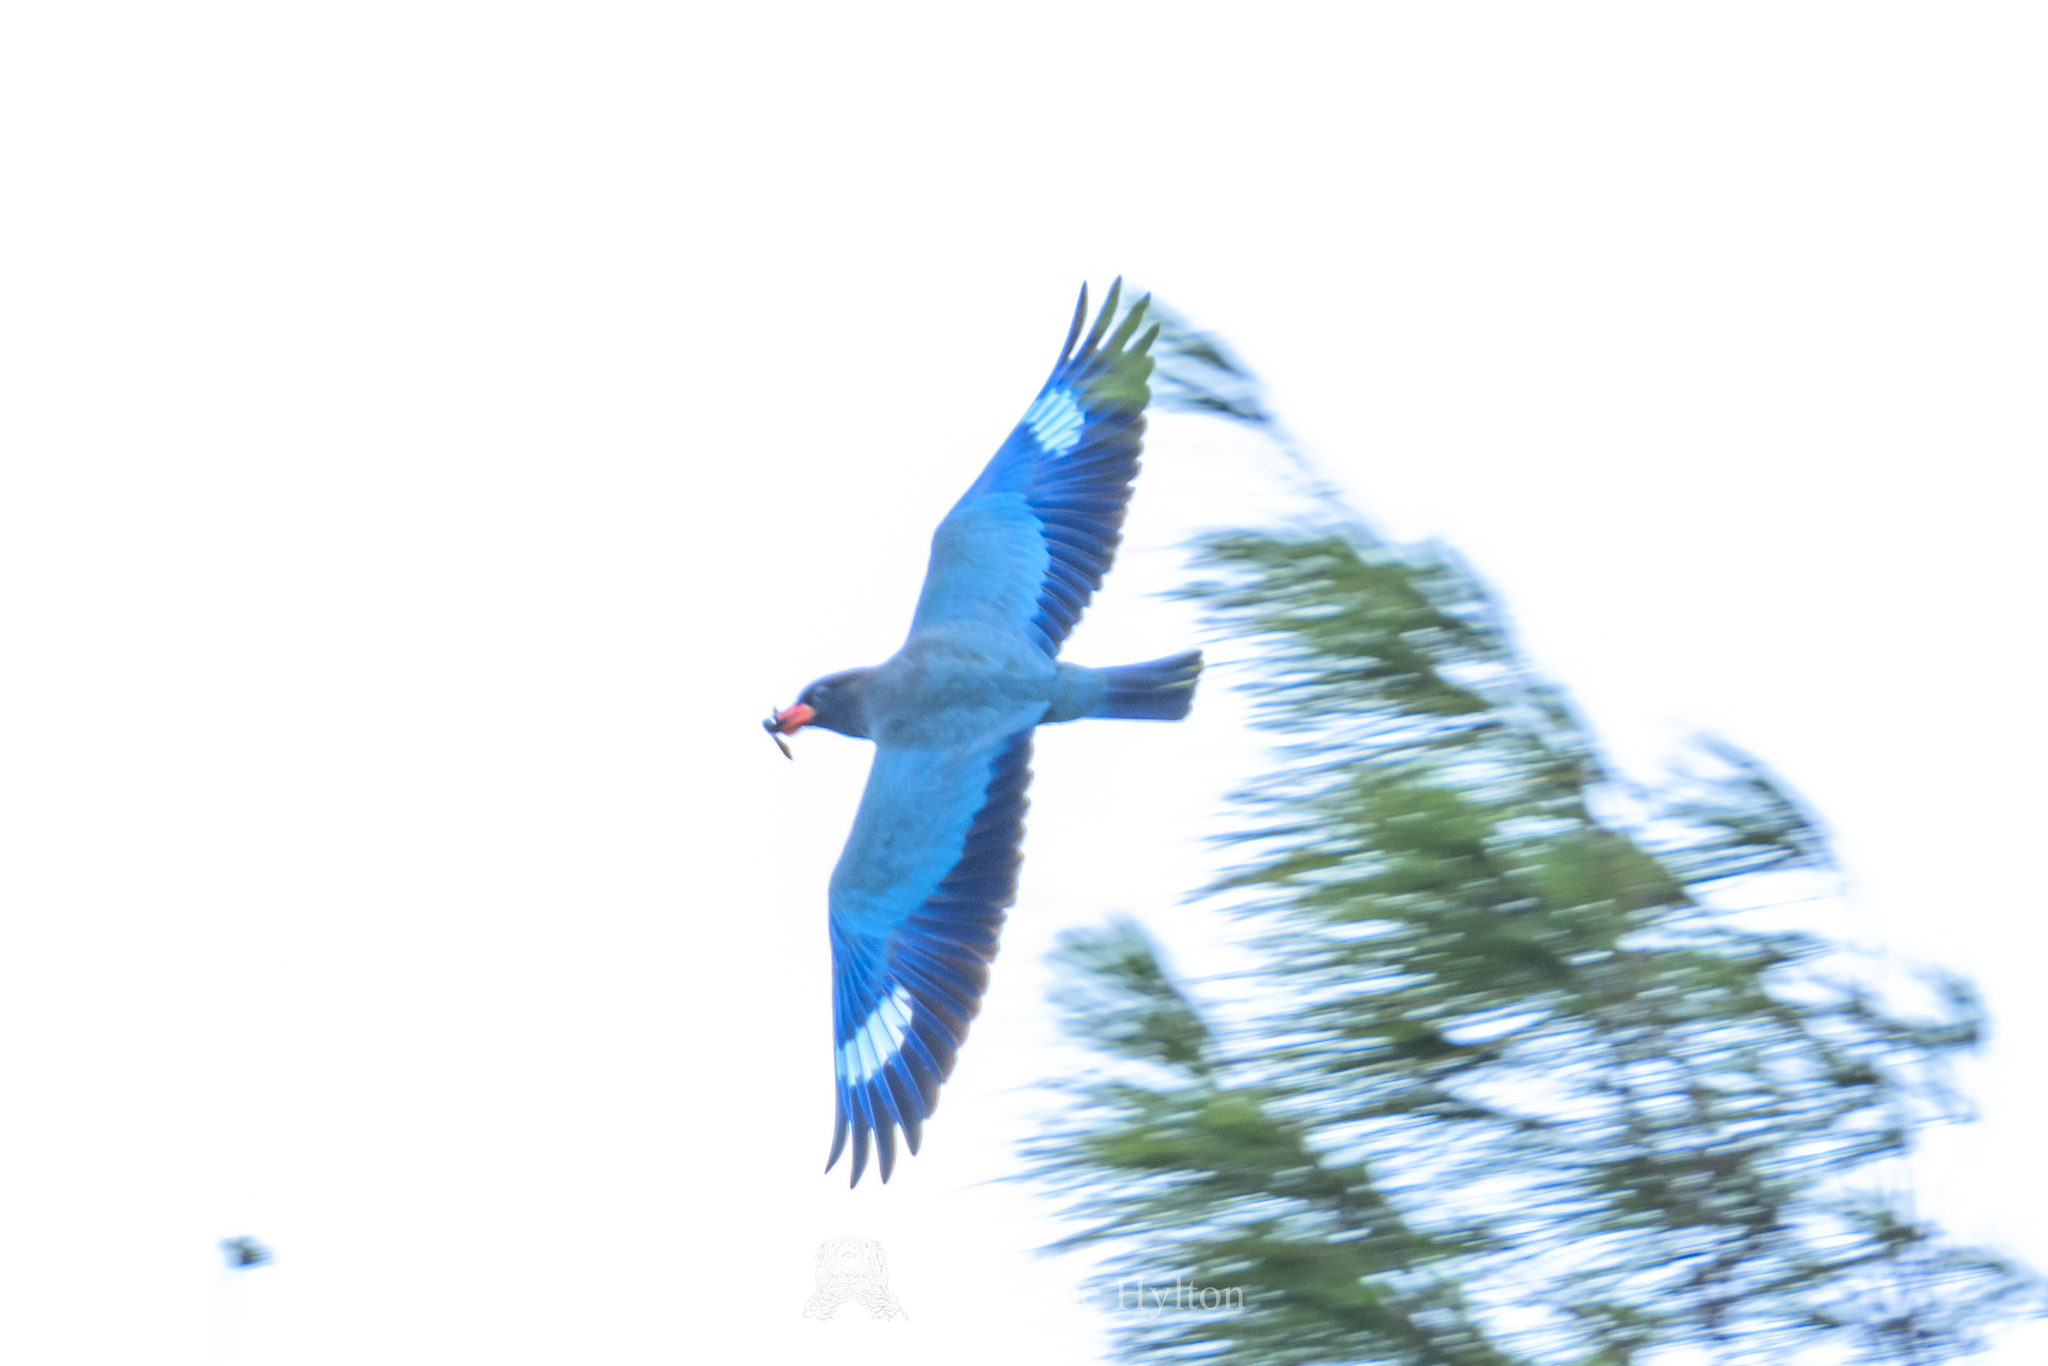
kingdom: Animalia
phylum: Chordata
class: Aves
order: Coraciiformes
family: Coraciidae
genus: Eurystomus
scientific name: Eurystomus orientalis
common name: Oriental dollarbird
